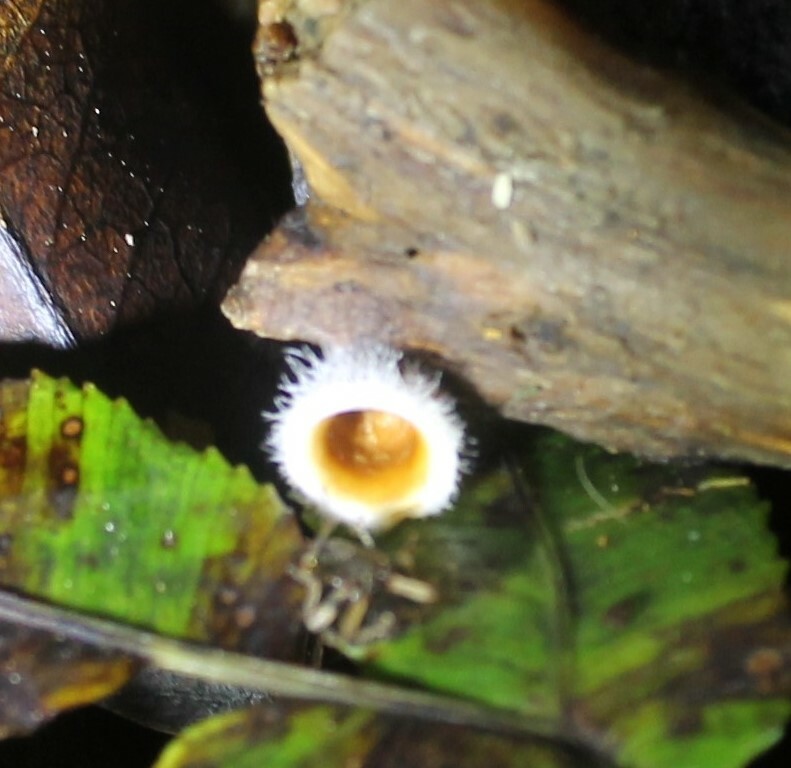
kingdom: Fungi
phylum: Basidiomycota
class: Agaricomycetes
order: Agaricales
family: Agaricaceae
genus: Nidula
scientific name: Nidula niveotomentosa
